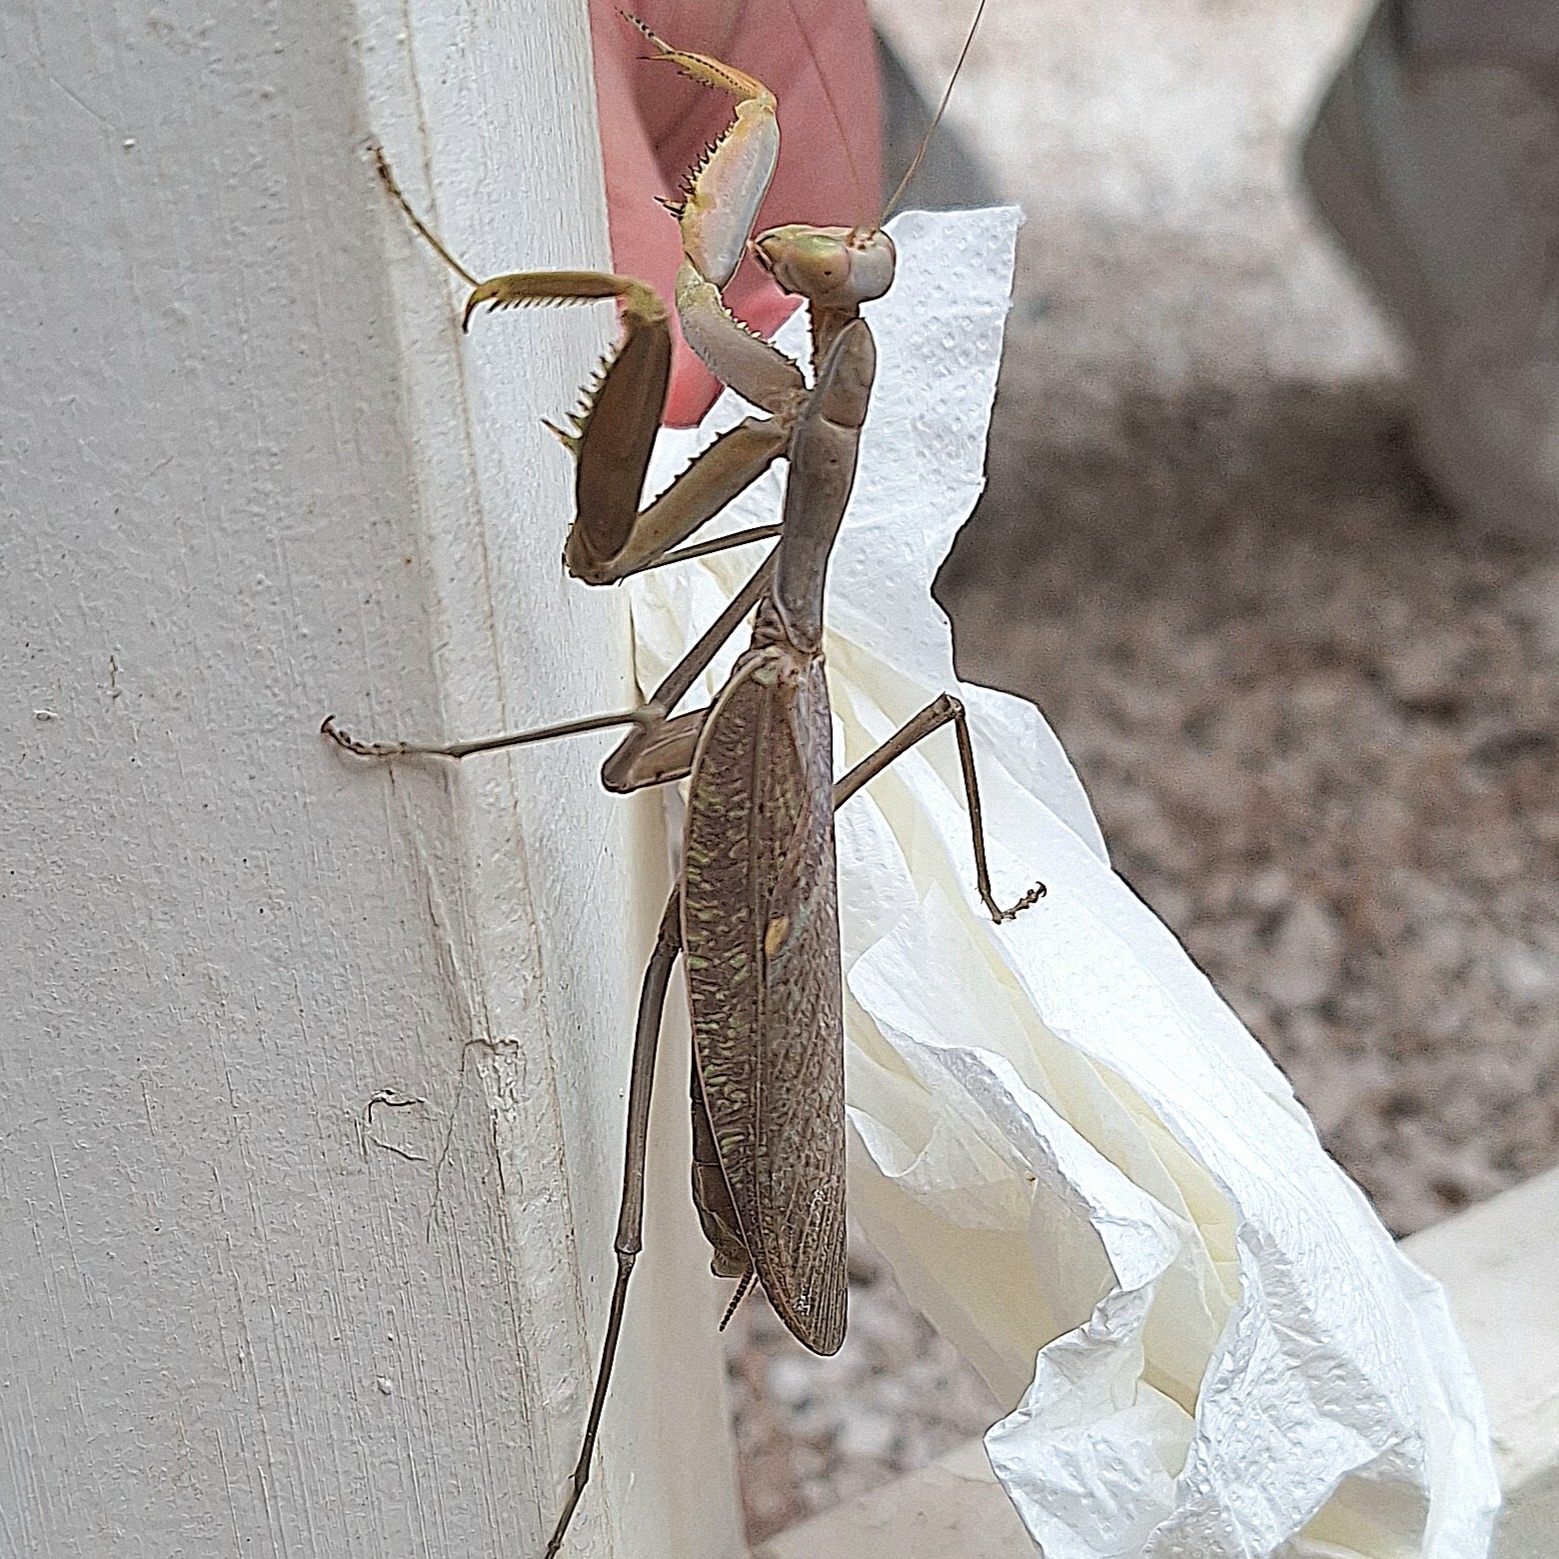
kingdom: Animalia
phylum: Arthropoda
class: Insecta
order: Mantodea
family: Mantidae
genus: Hierodula
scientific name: Hierodula transcaucasica
